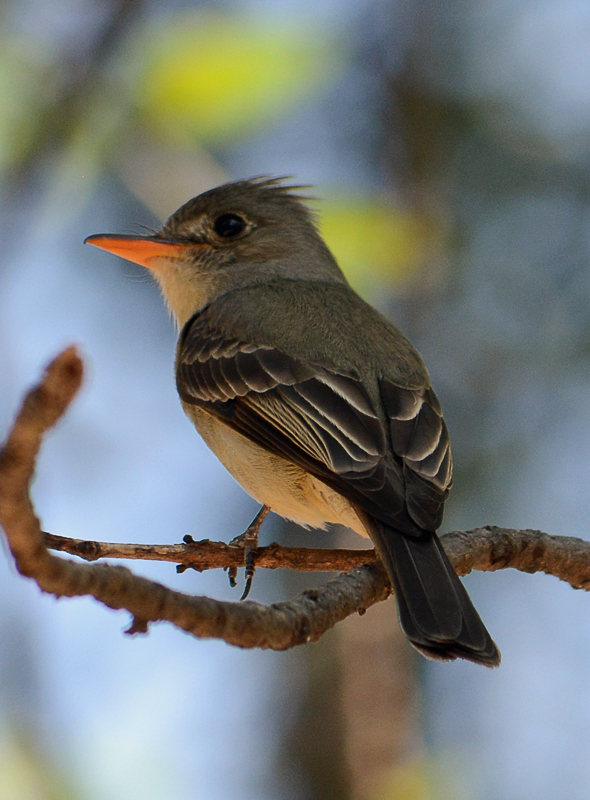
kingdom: Animalia
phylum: Chordata
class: Aves
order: Passeriformes
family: Tyrannidae
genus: Contopus
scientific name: Contopus pertinax
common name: Greater pewee
